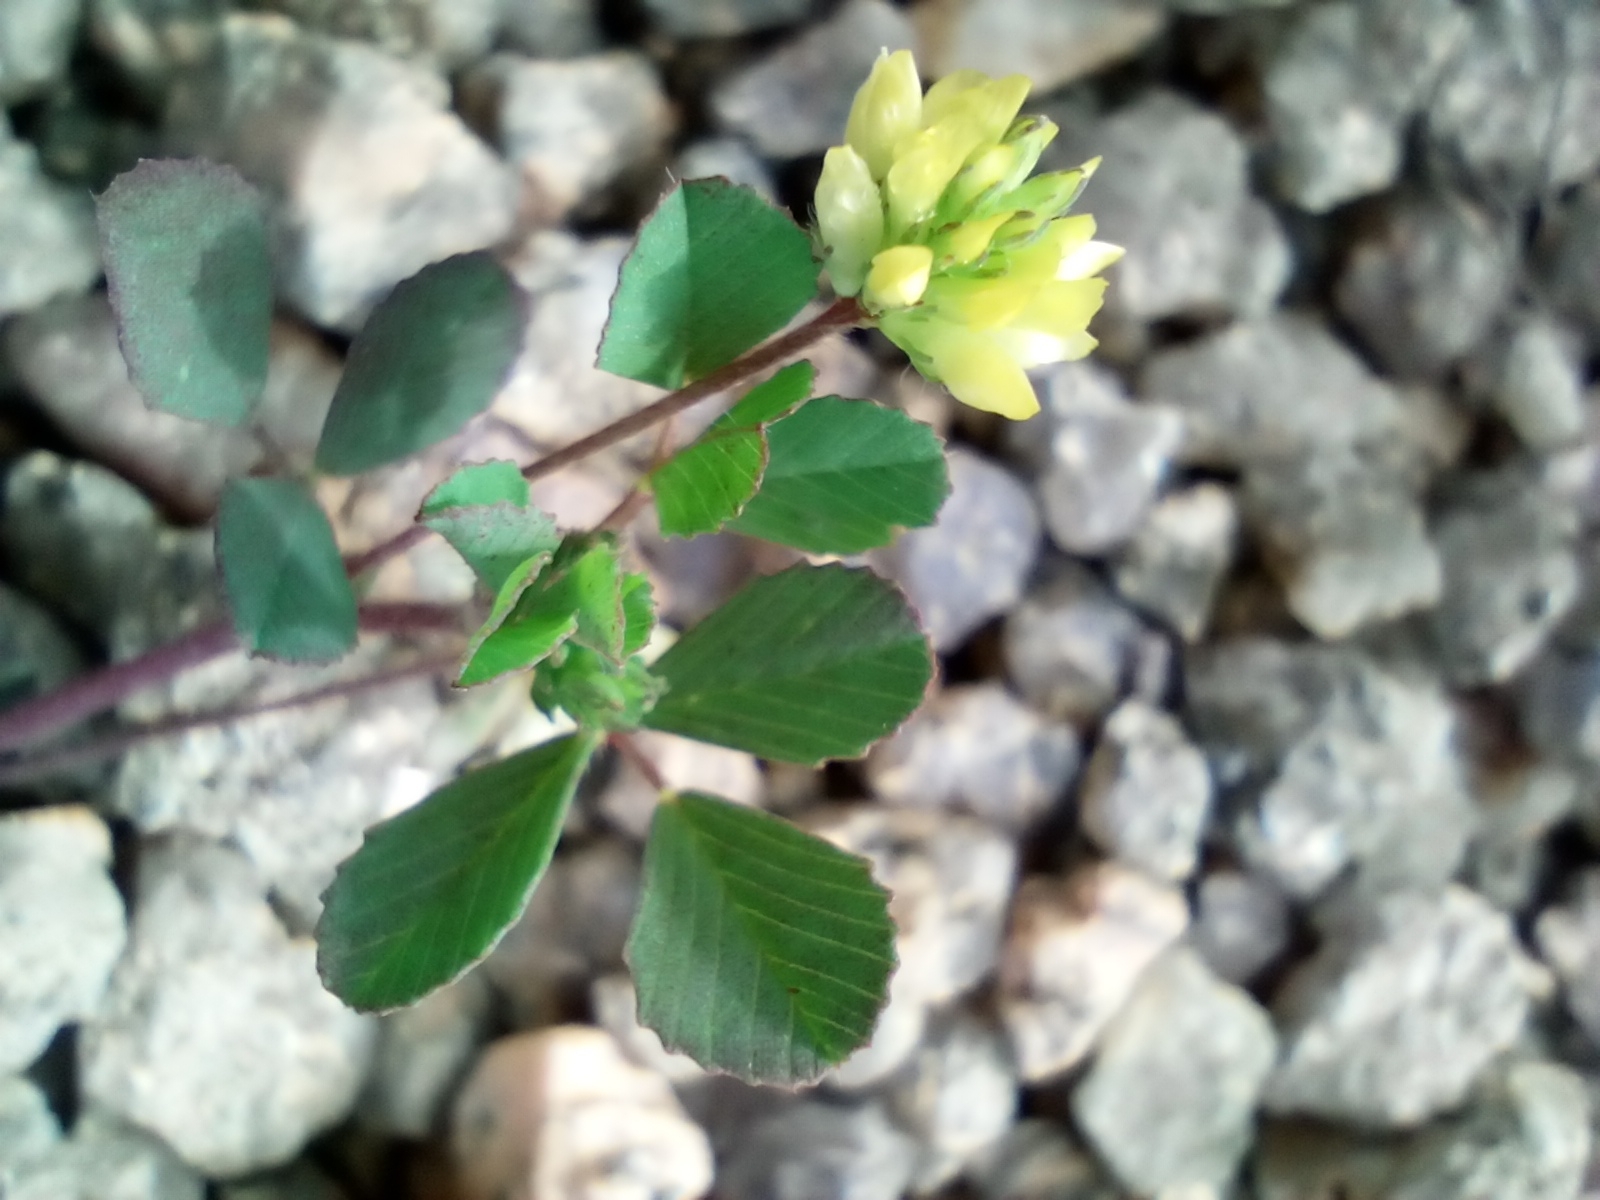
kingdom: Plantae
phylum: Tracheophyta
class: Magnoliopsida
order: Fabales
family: Fabaceae
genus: Trifolium
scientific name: Trifolium campestre
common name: Field clover
